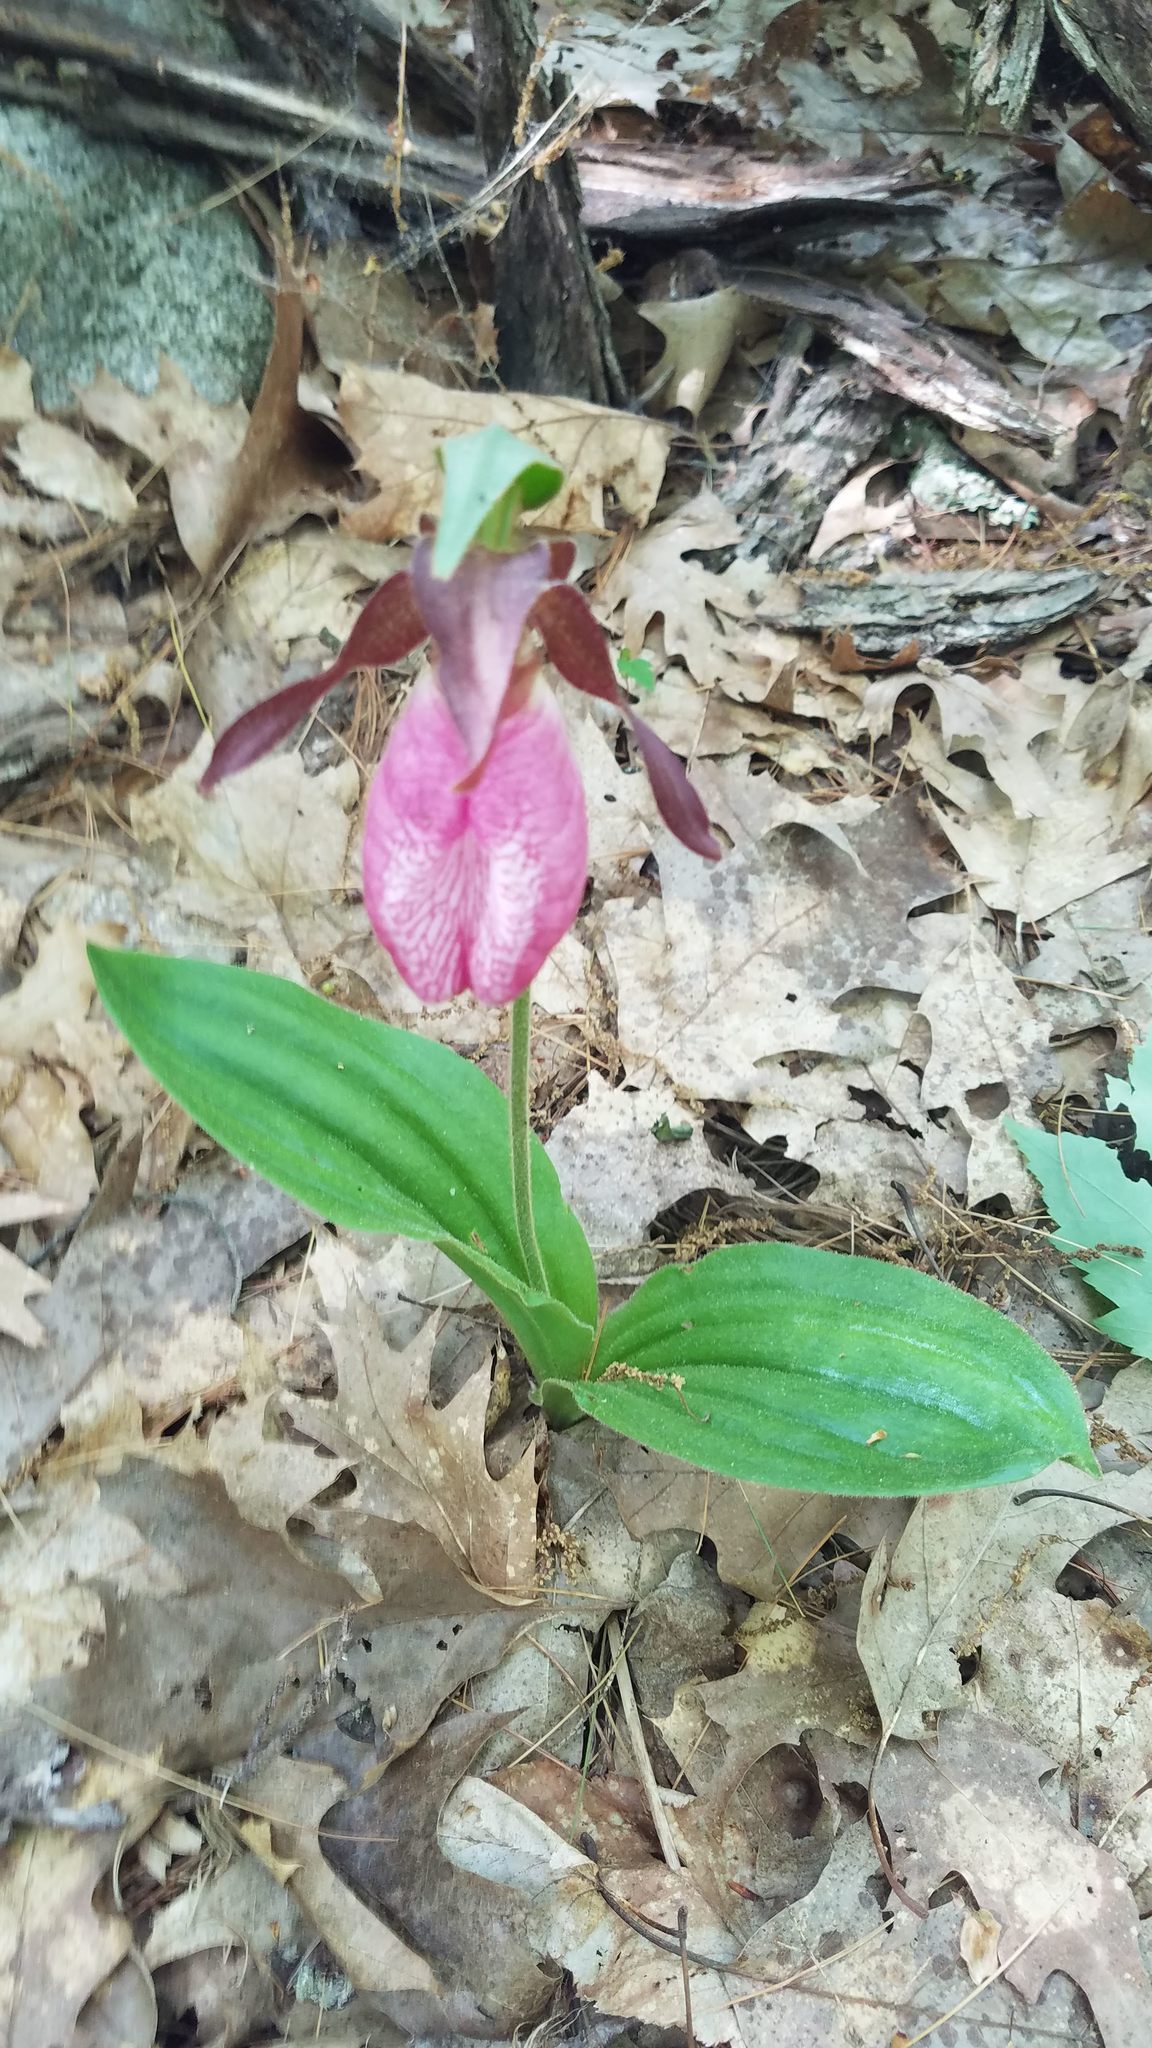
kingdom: Plantae
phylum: Tracheophyta
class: Liliopsida
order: Asparagales
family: Orchidaceae
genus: Cypripedium
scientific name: Cypripedium acaule
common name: Pink lady's-slipper
